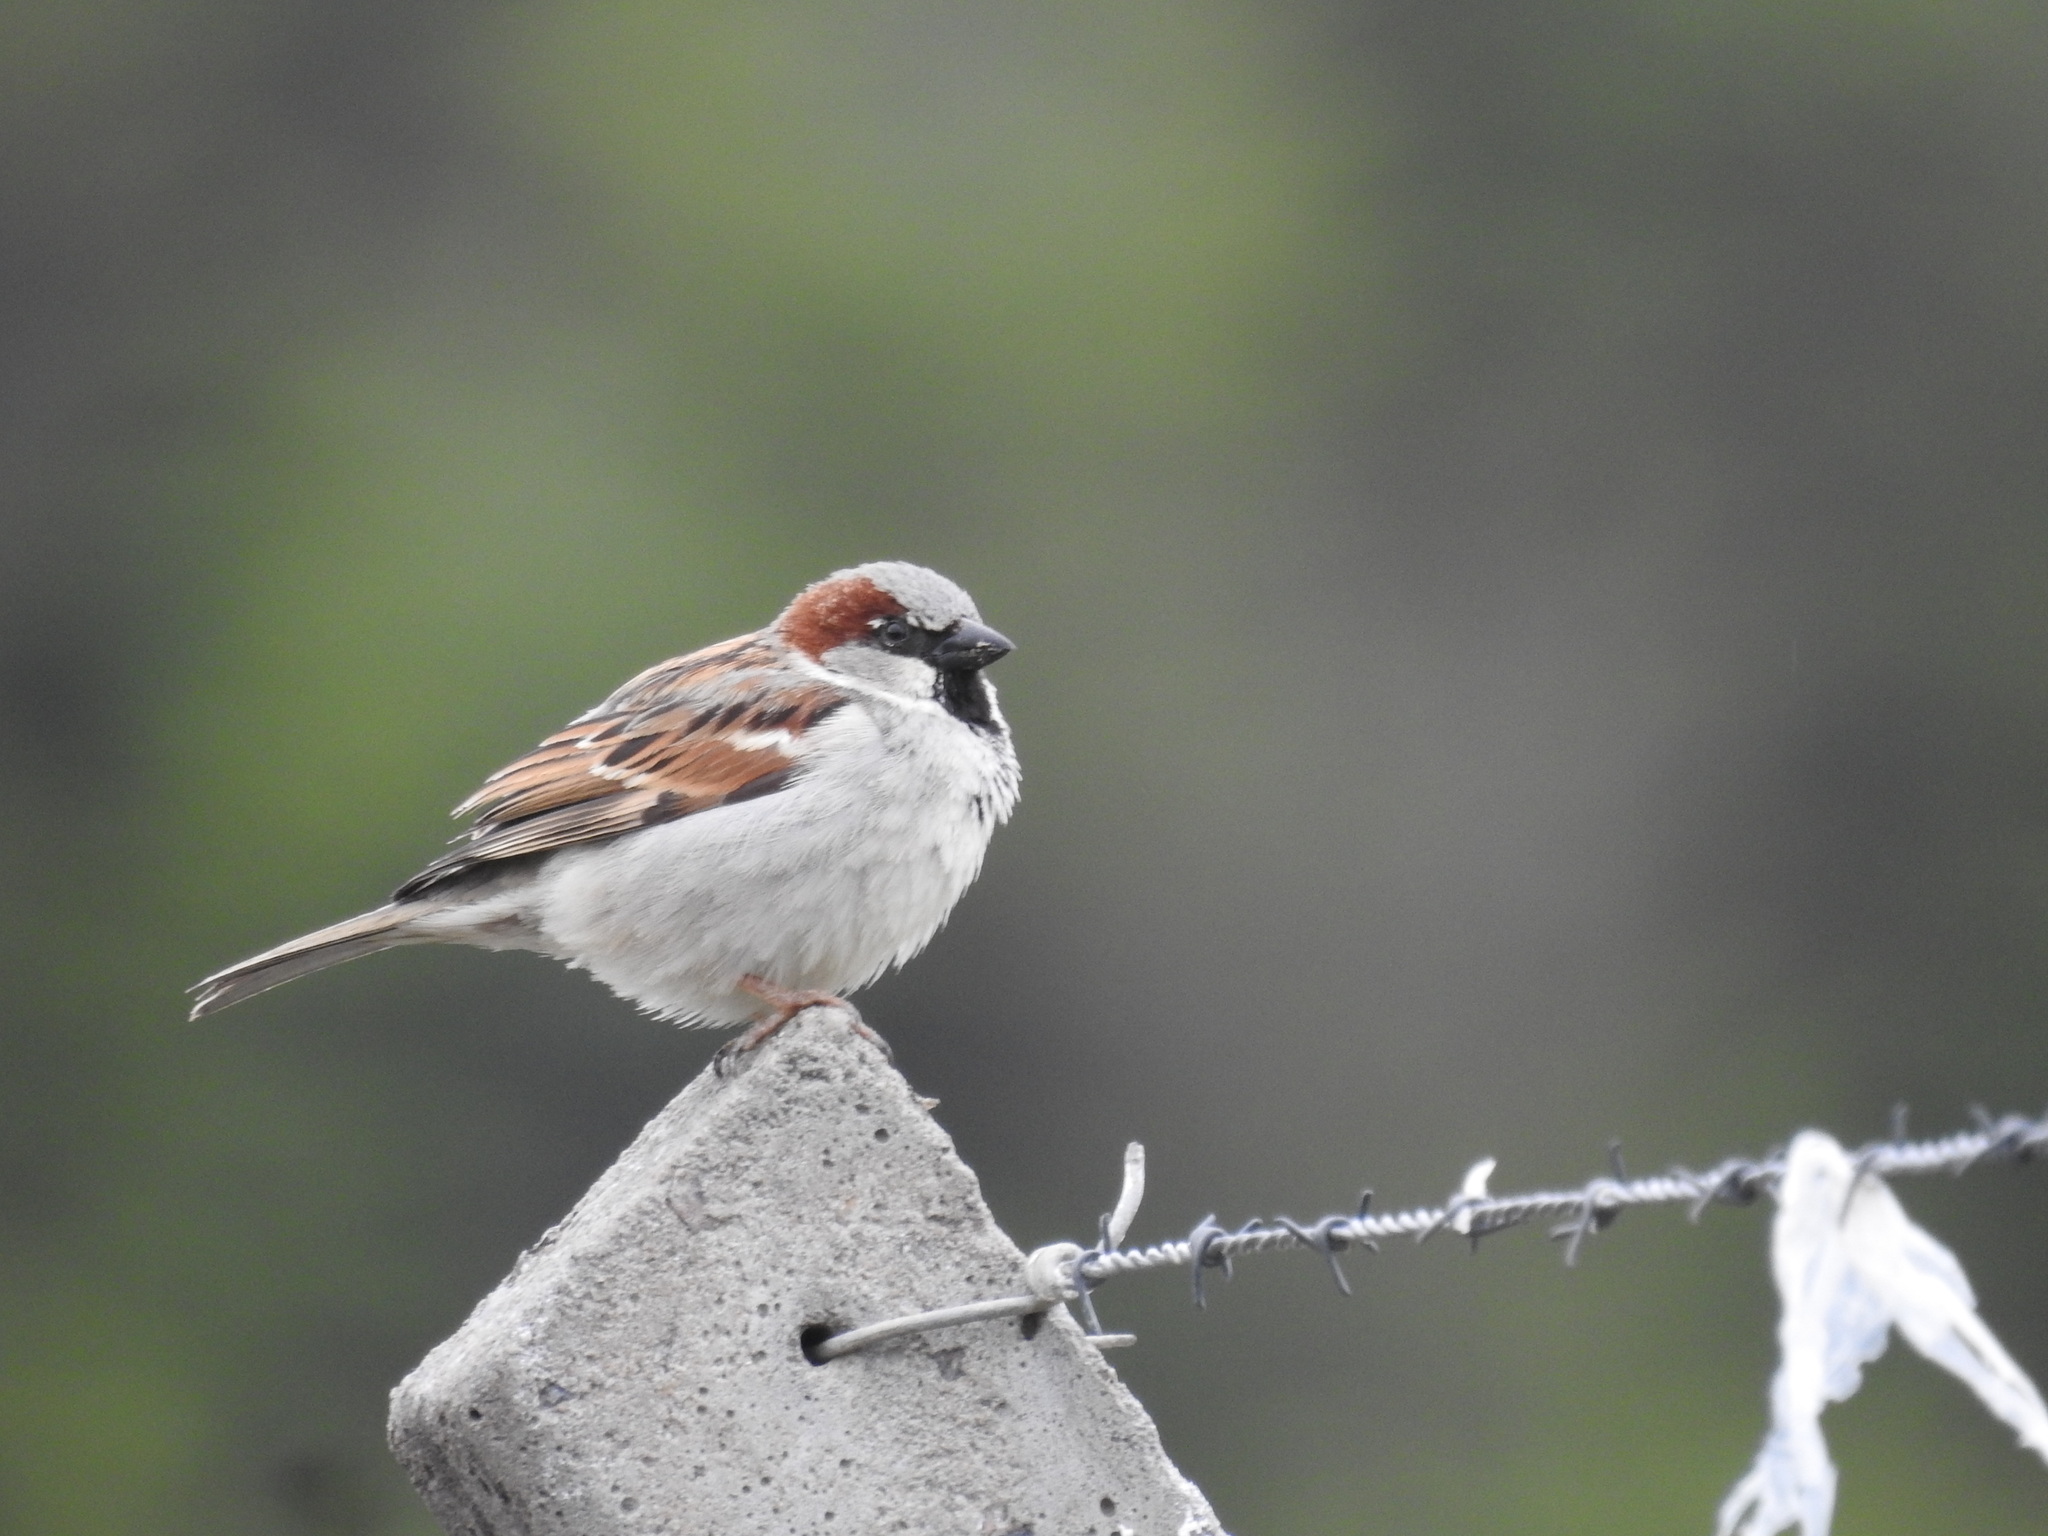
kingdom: Animalia
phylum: Chordata
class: Aves
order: Passeriformes
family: Passeridae
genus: Passer
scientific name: Passer domesticus
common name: House sparrow
